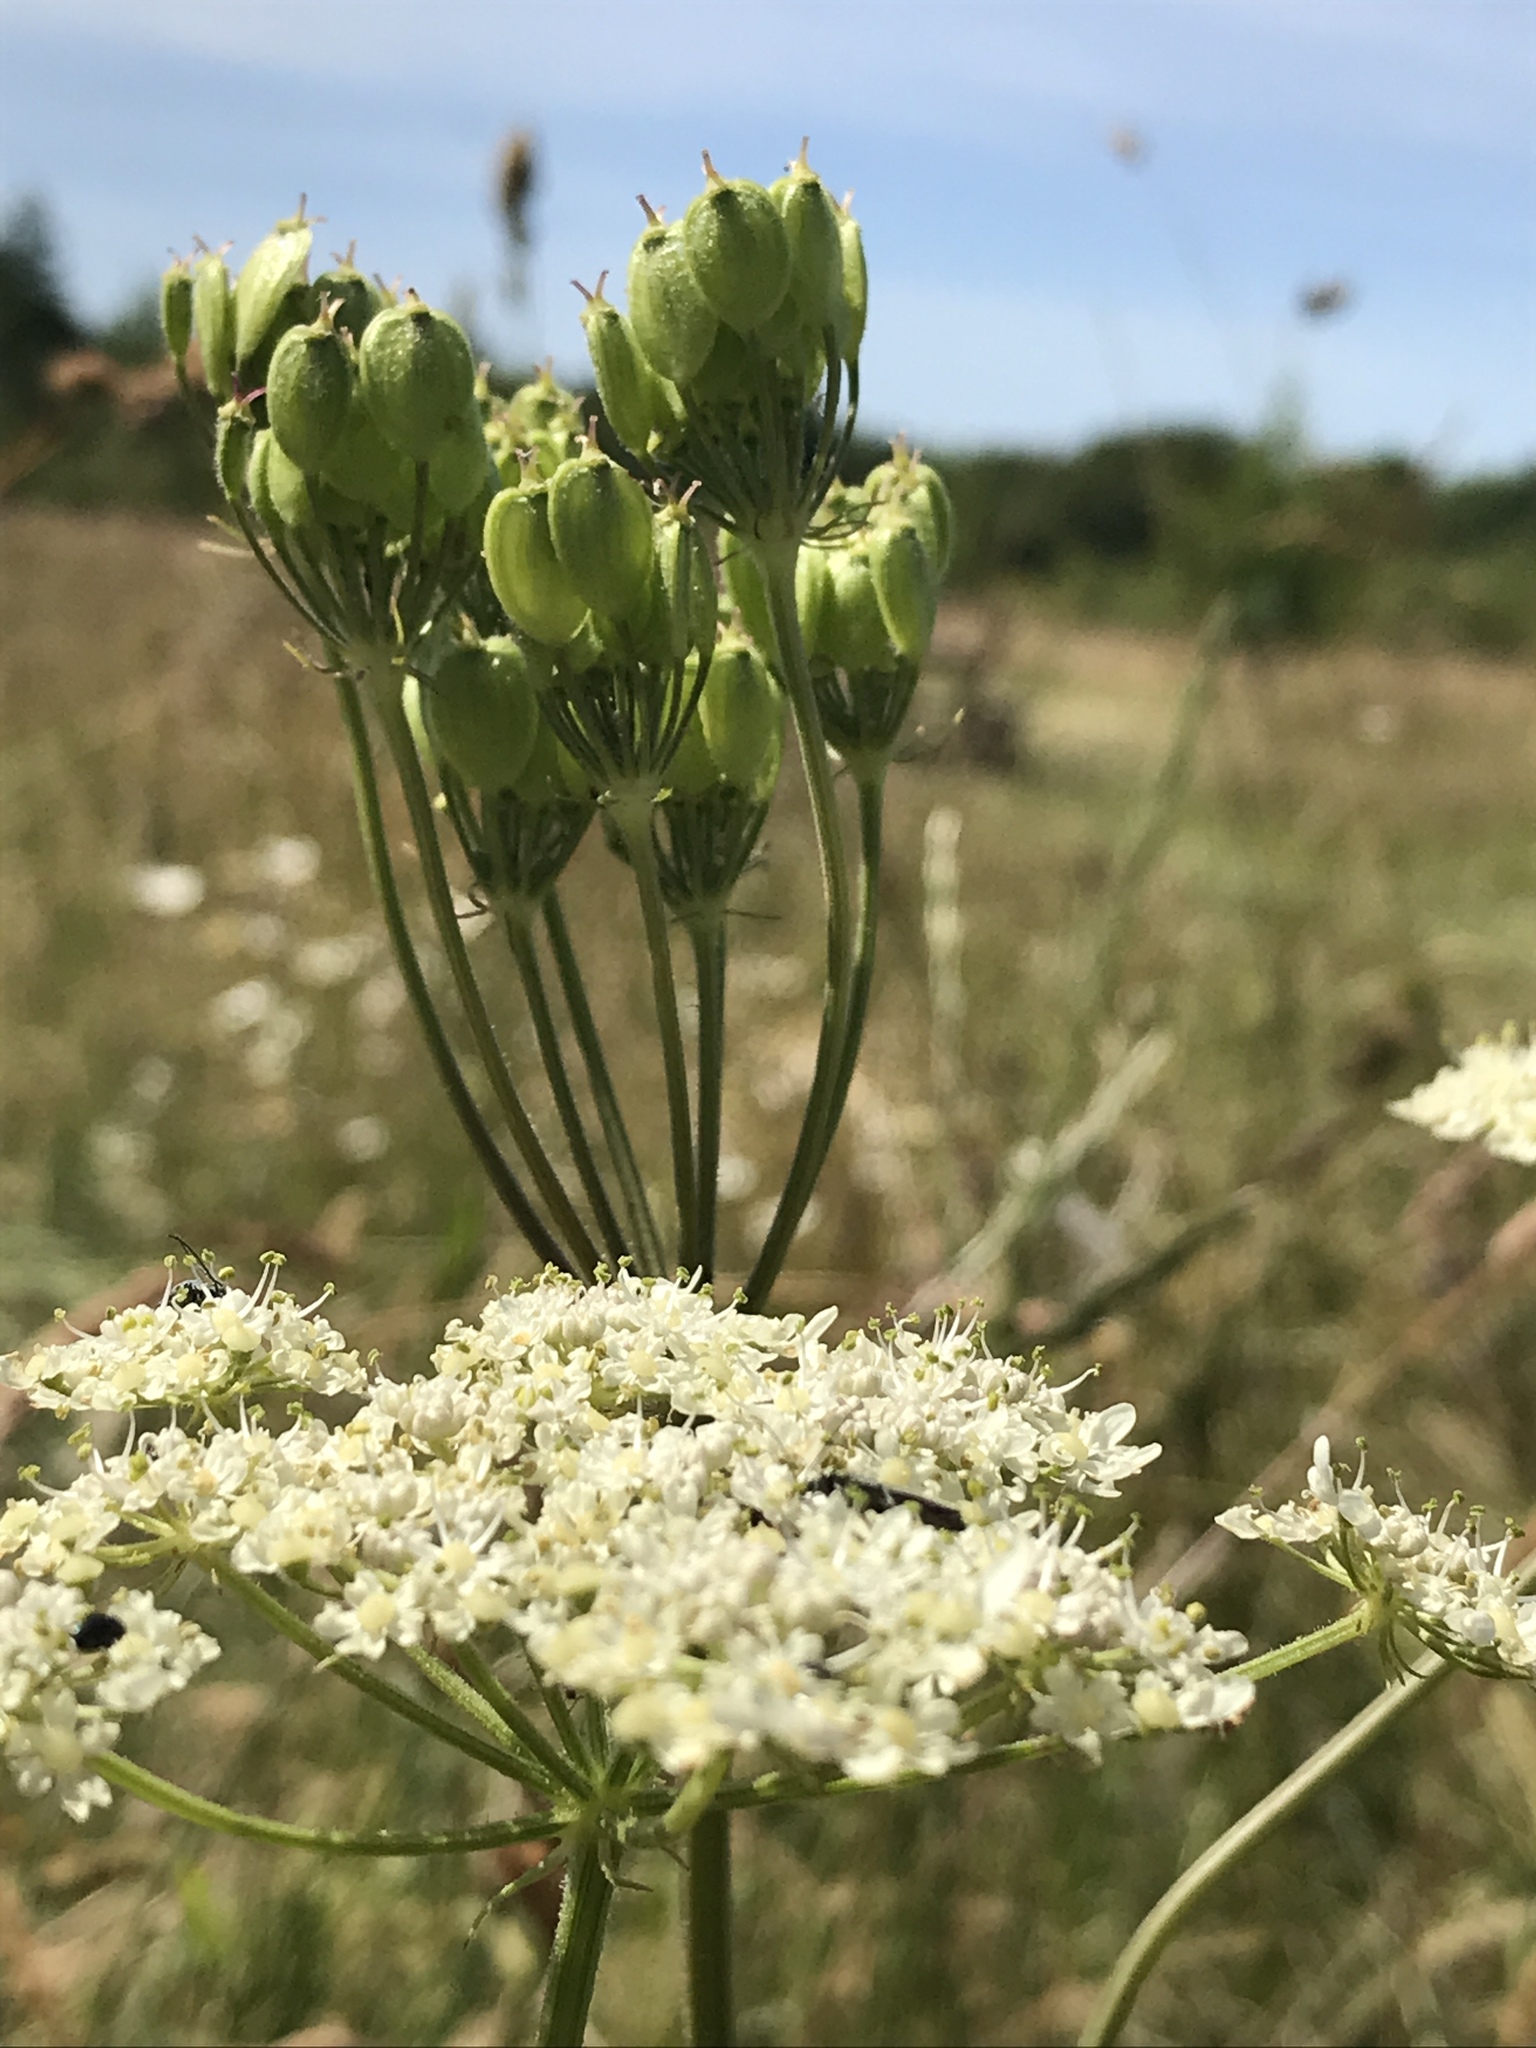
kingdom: Plantae
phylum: Tracheophyta
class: Magnoliopsida
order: Apiales
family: Apiaceae
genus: Heracleum
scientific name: Heracleum sphondylium
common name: Hogweed
